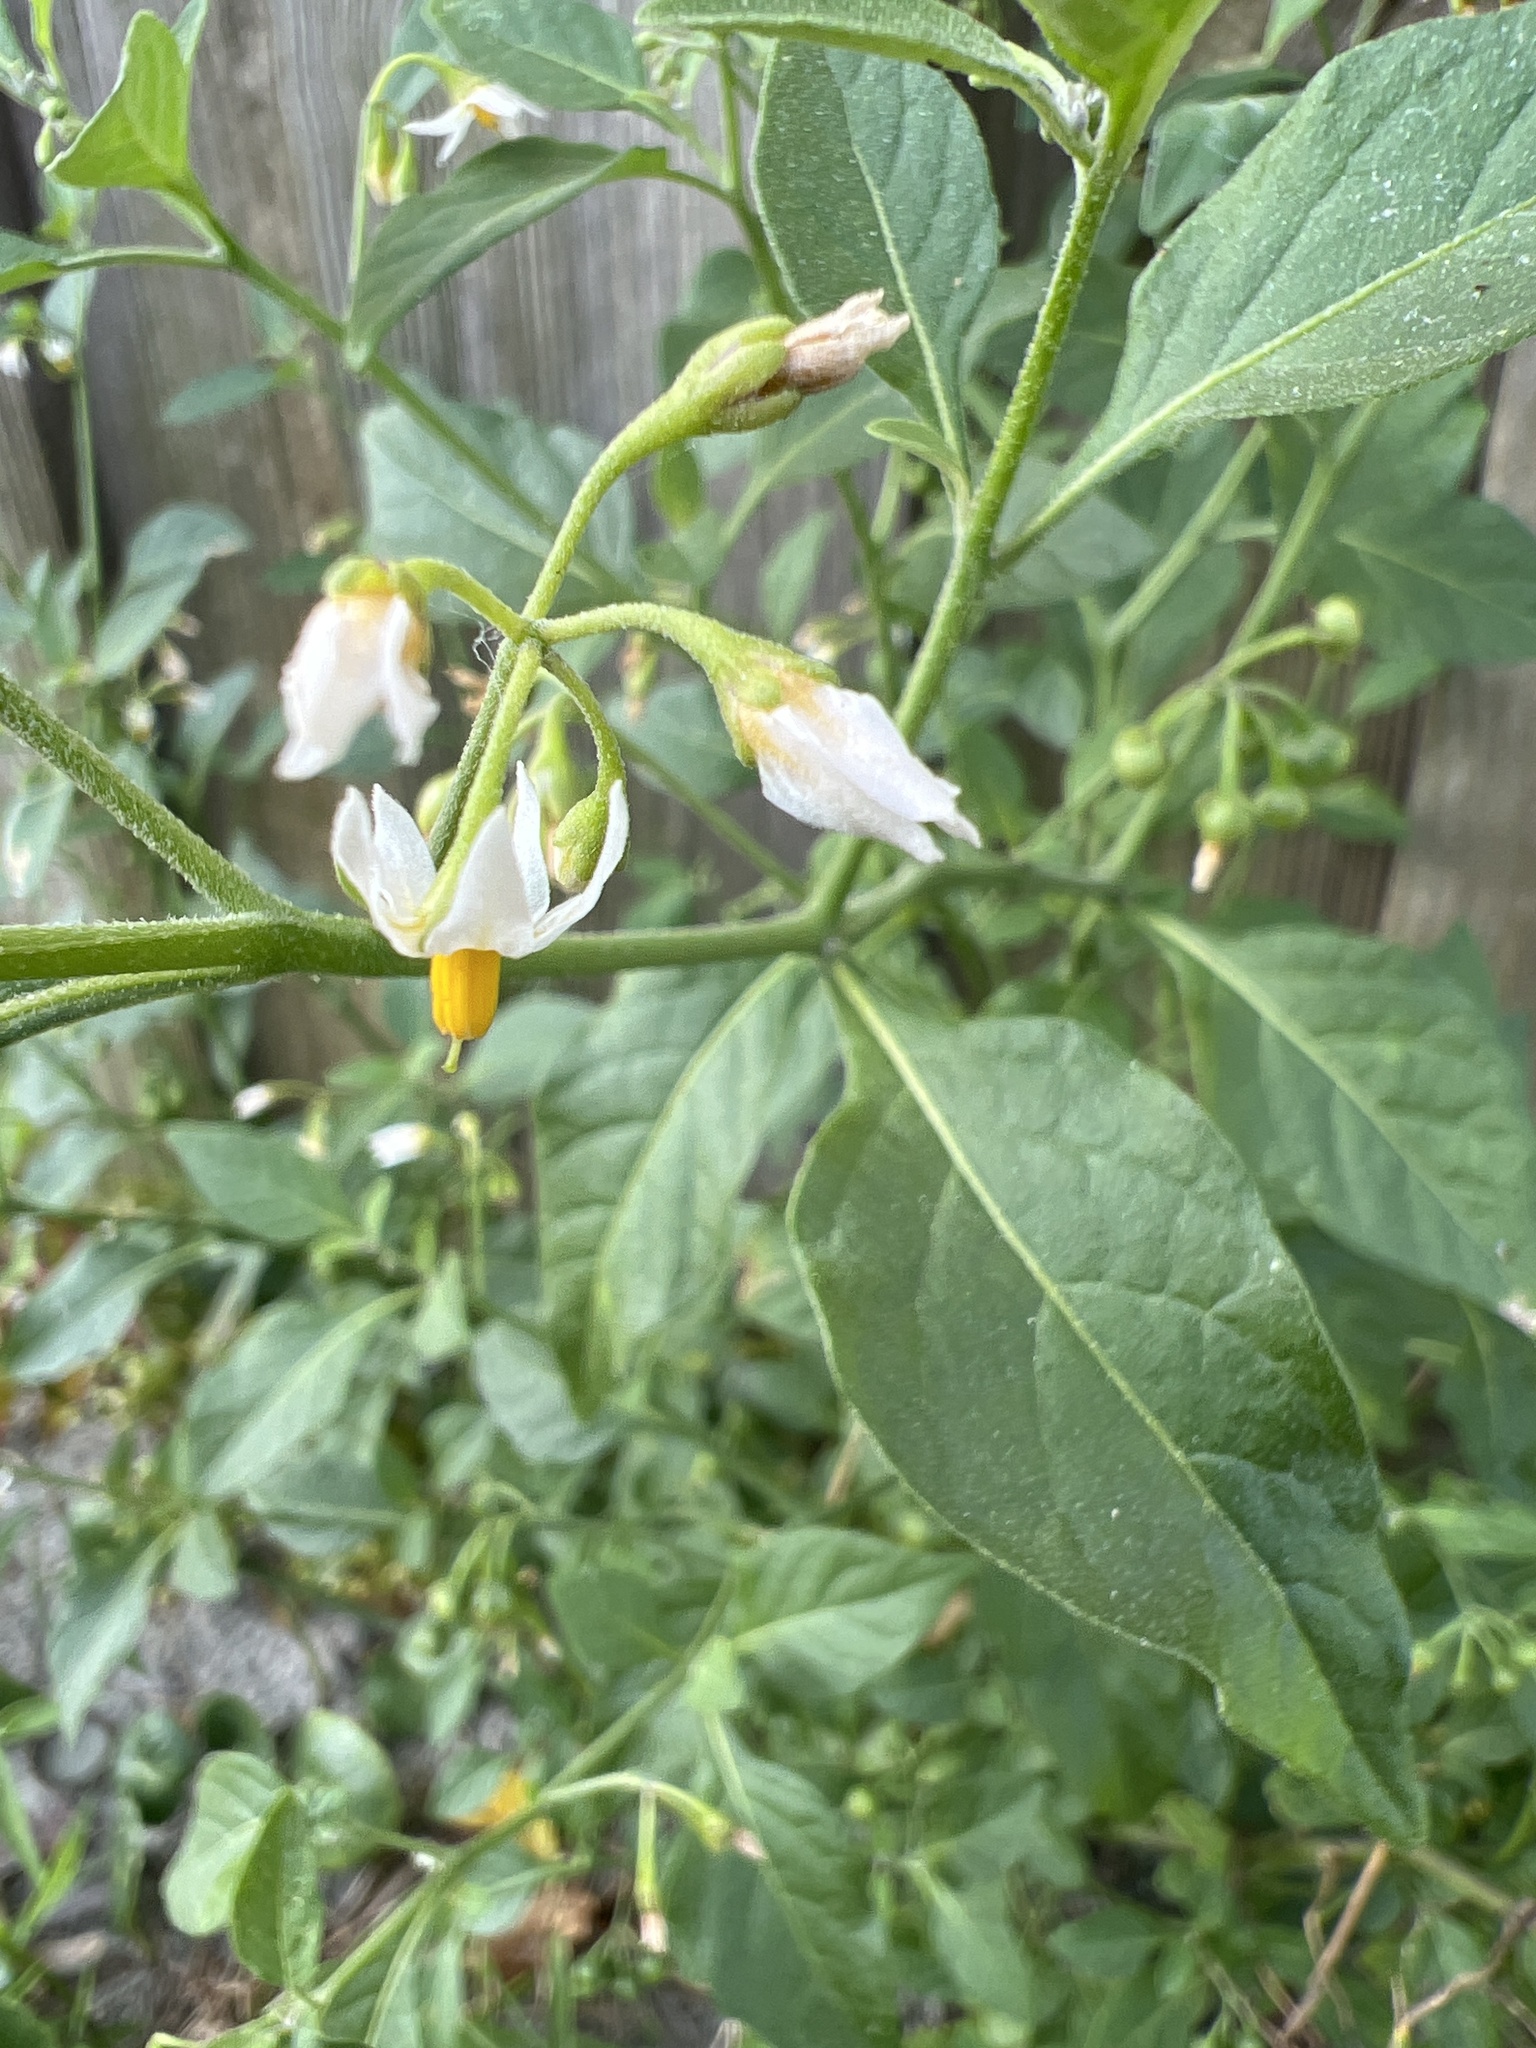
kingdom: Plantae
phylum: Tracheophyta
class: Magnoliopsida
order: Solanales
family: Solanaceae
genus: Solanum
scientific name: Solanum emulans
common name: Eastern black nightshade
